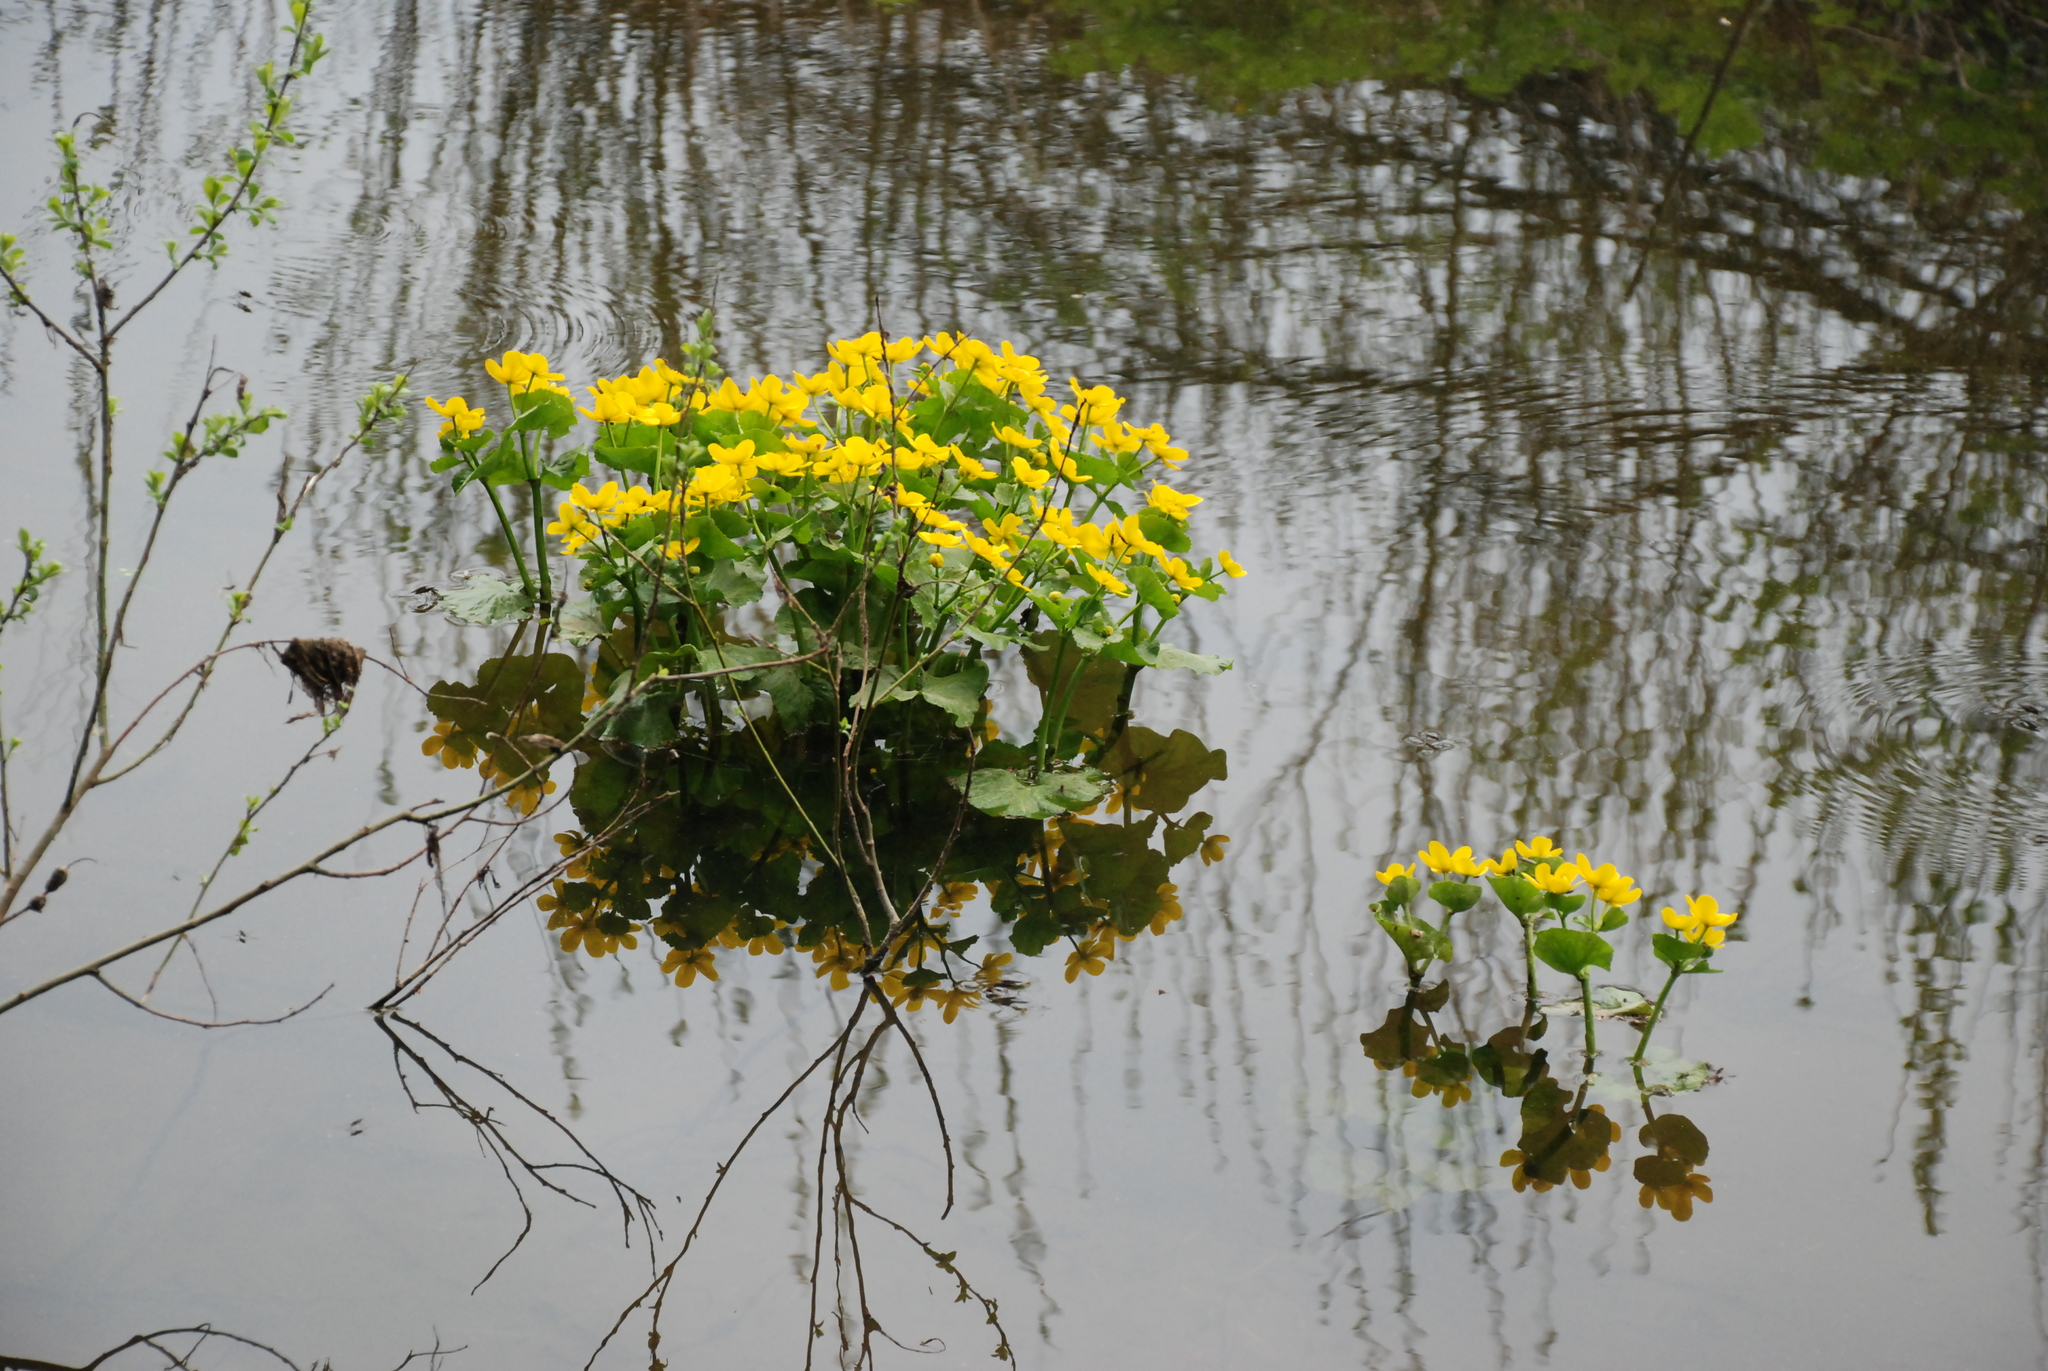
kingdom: Plantae
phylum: Tracheophyta
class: Magnoliopsida
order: Ranunculales
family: Ranunculaceae
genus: Caltha
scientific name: Caltha palustris
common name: Marsh marigold
